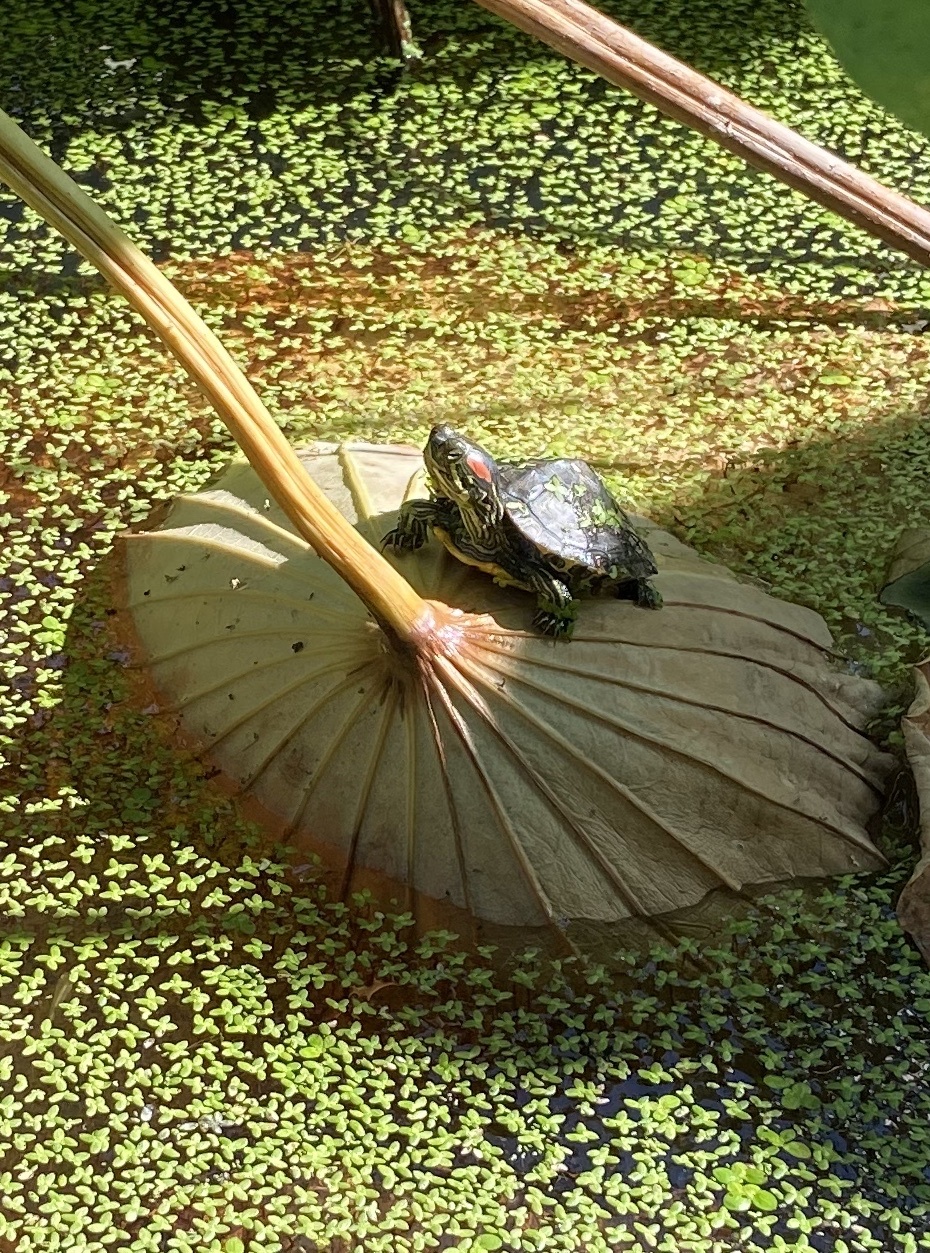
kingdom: Animalia
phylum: Chordata
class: Testudines
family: Emydidae
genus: Trachemys
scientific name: Trachemys scripta
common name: Slider
